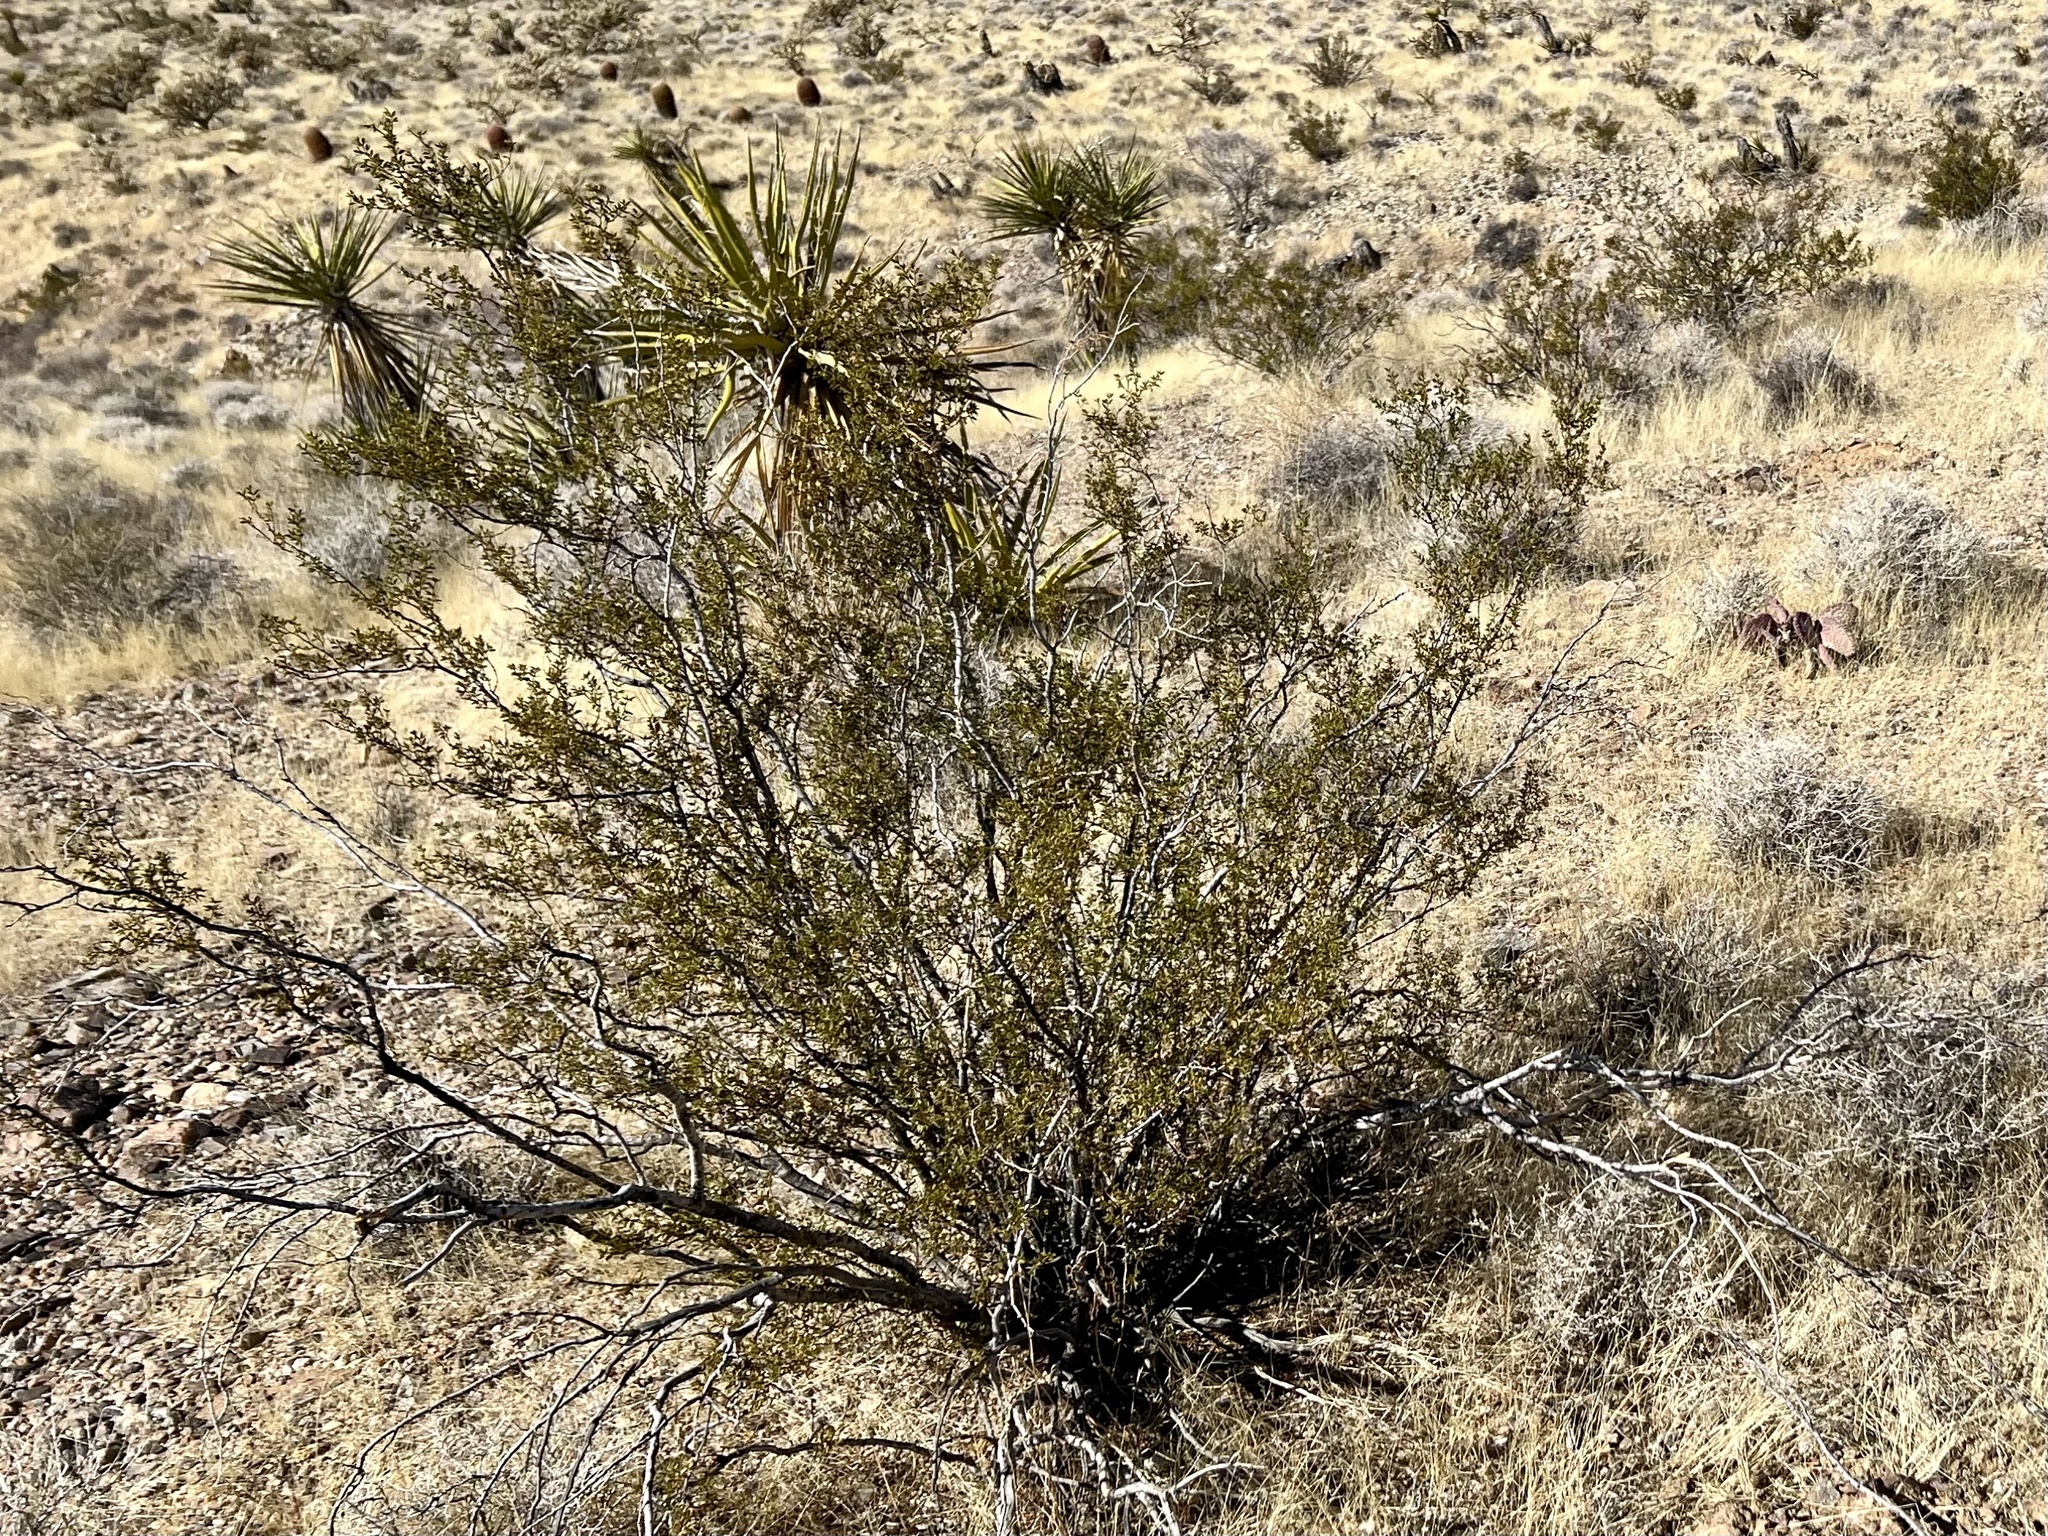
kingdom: Plantae
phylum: Tracheophyta
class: Magnoliopsida
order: Zygophyllales
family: Zygophyllaceae
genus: Larrea
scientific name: Larrea tridentata
